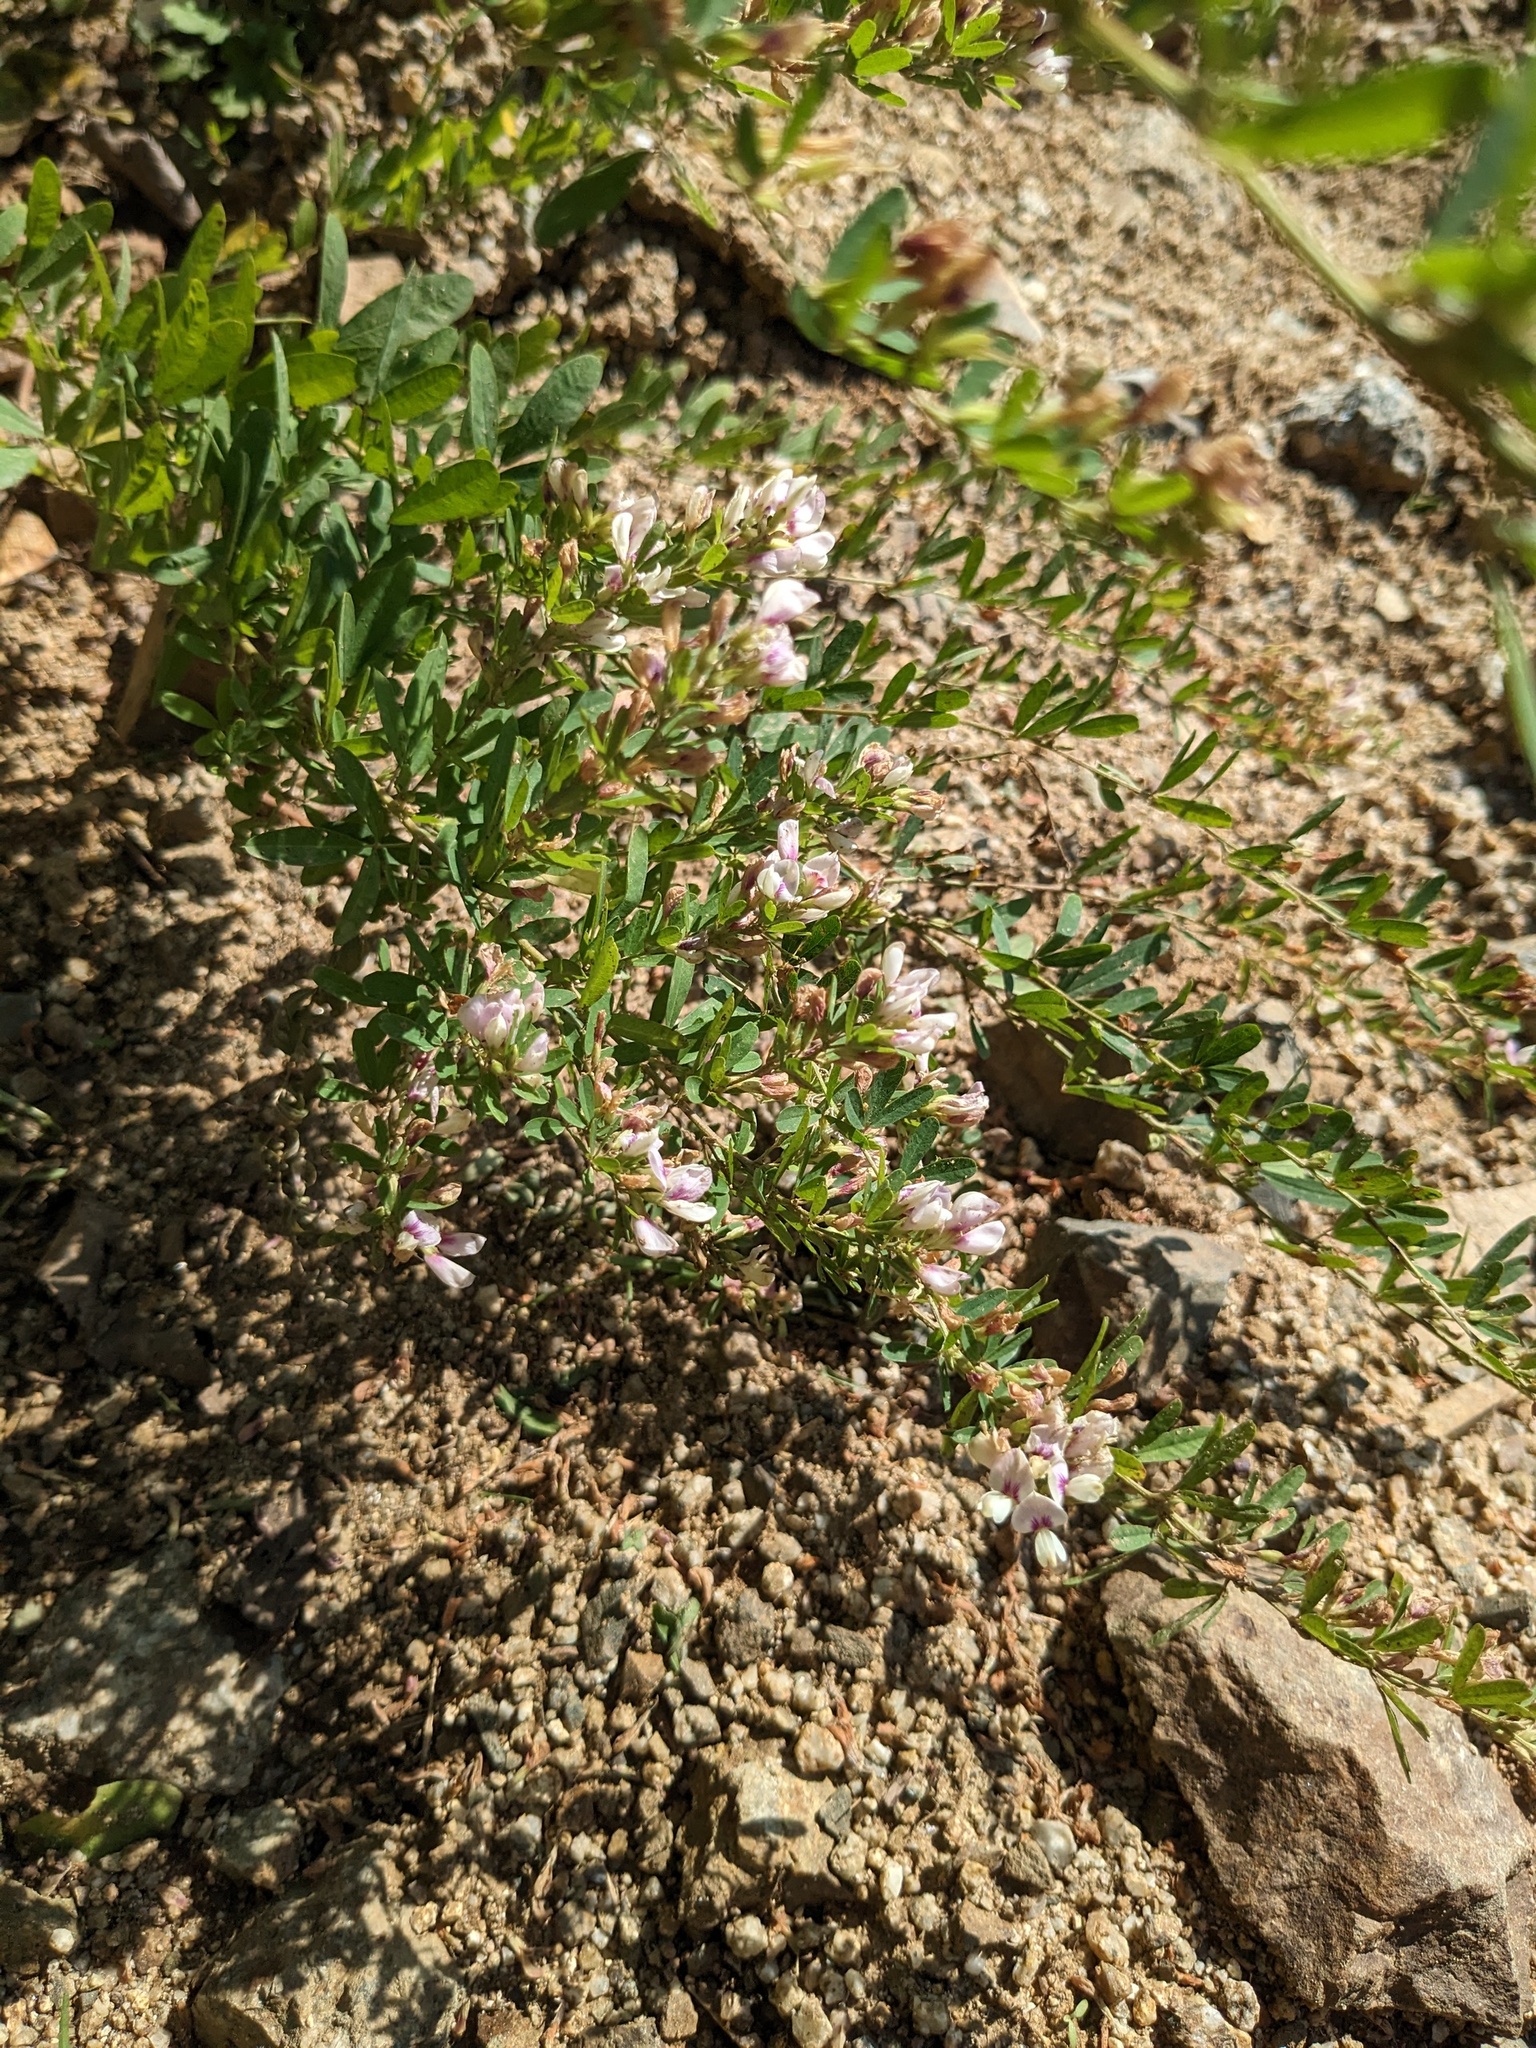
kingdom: Plantae
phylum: Tracheophyta
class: Magnoliopsida
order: Fabales
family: Fabaceae
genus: Lespedeza
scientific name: Lespedeza juncea
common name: Siberian lespedeza
